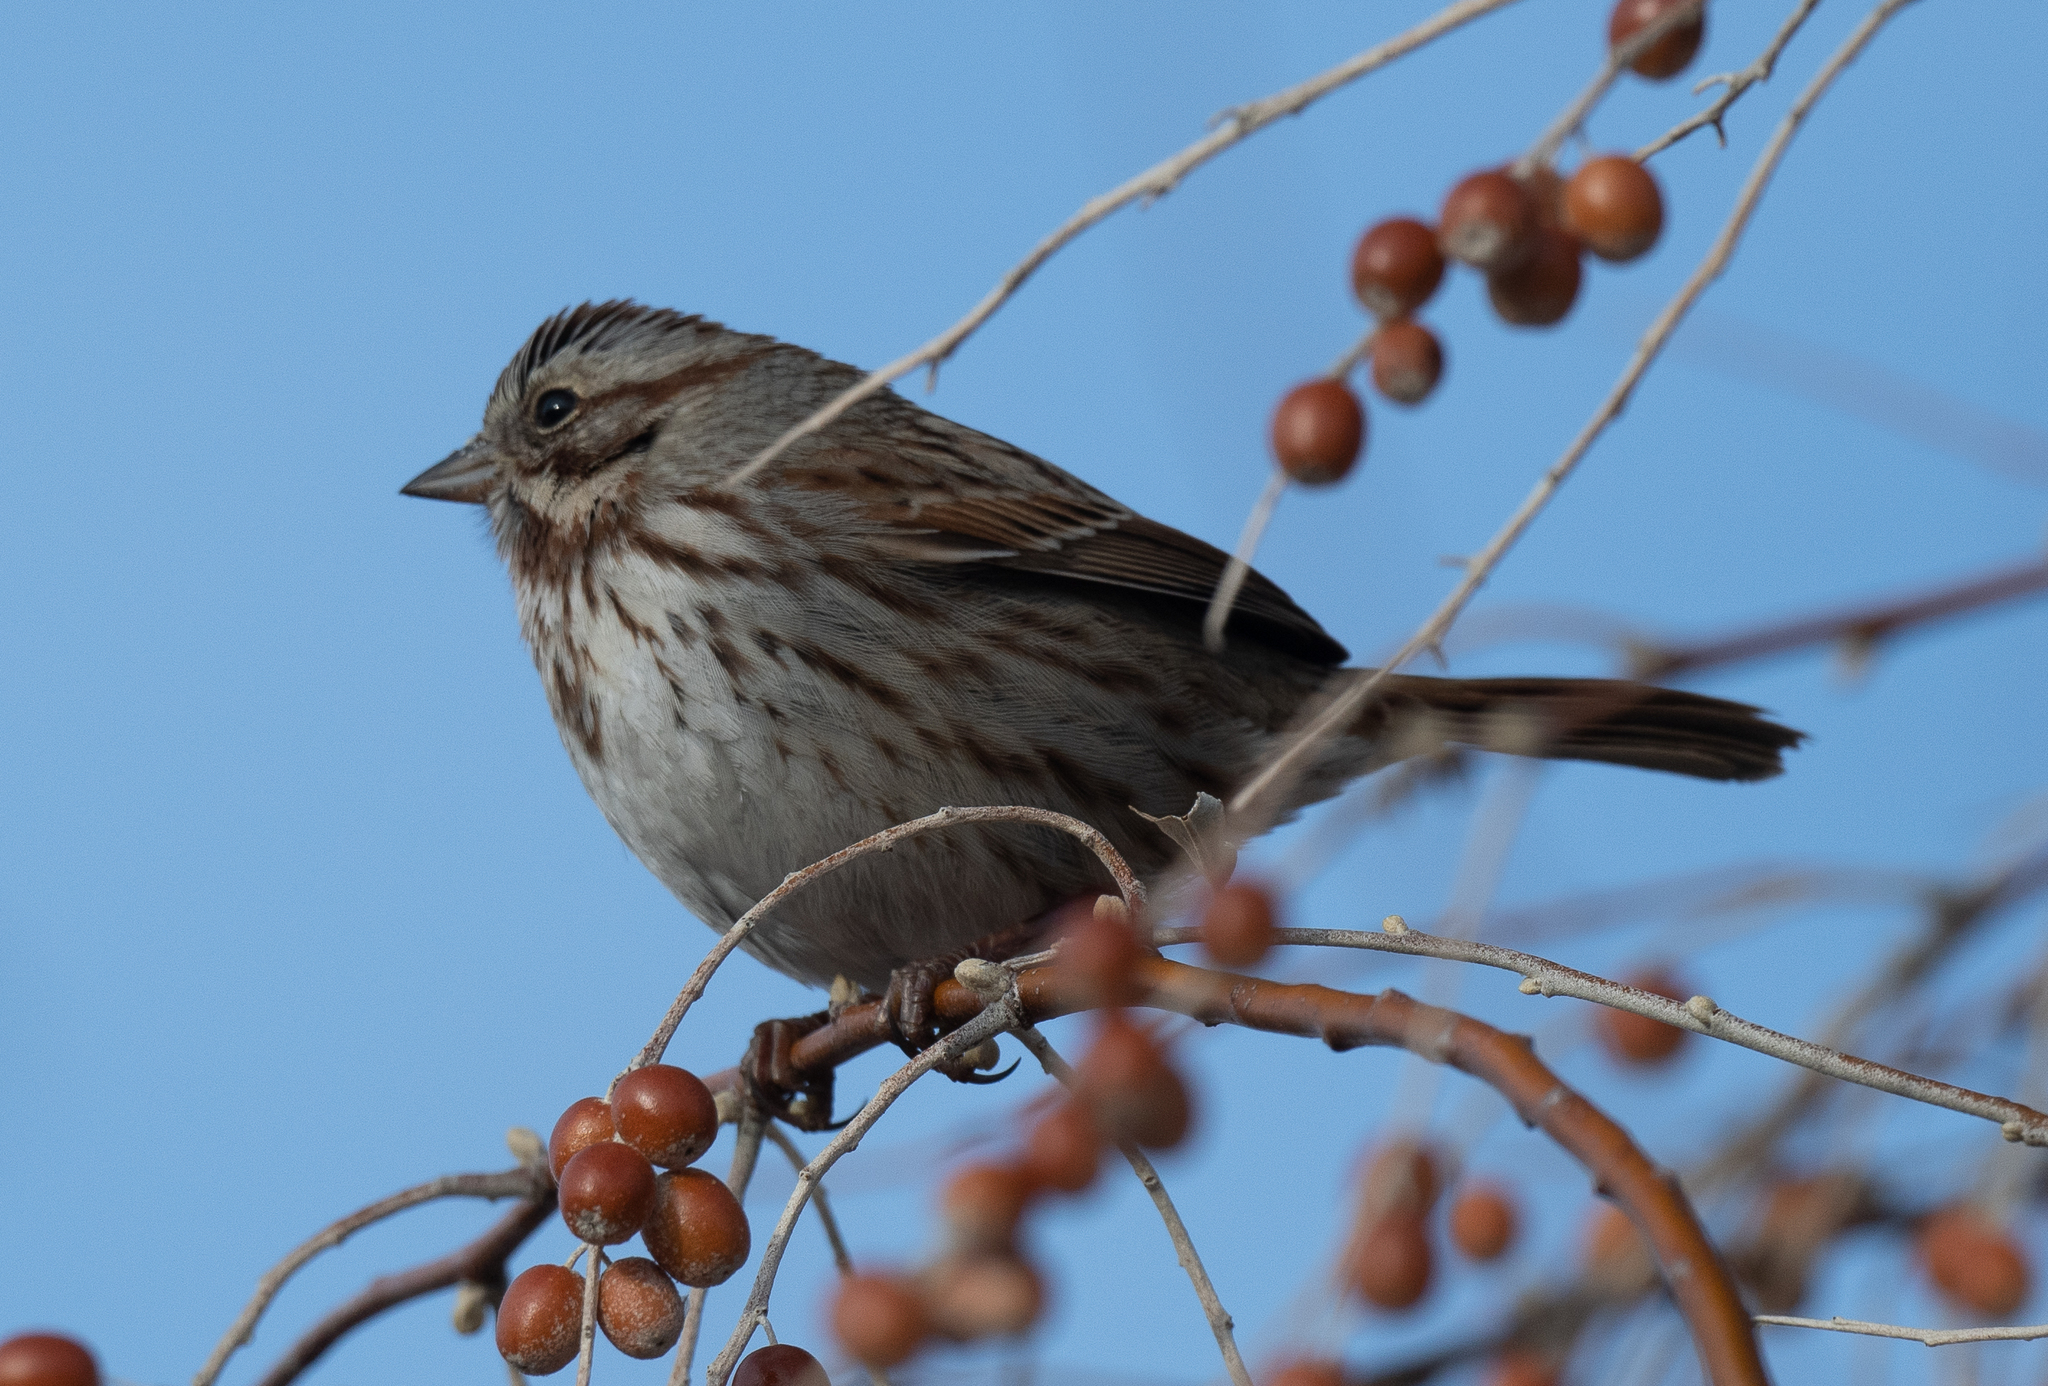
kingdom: Animalia
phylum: Chordata
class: Aves
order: Passeriformes
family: Passerellidae
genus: Melospiza
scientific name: Melospiza melodia
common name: Song sparrow
